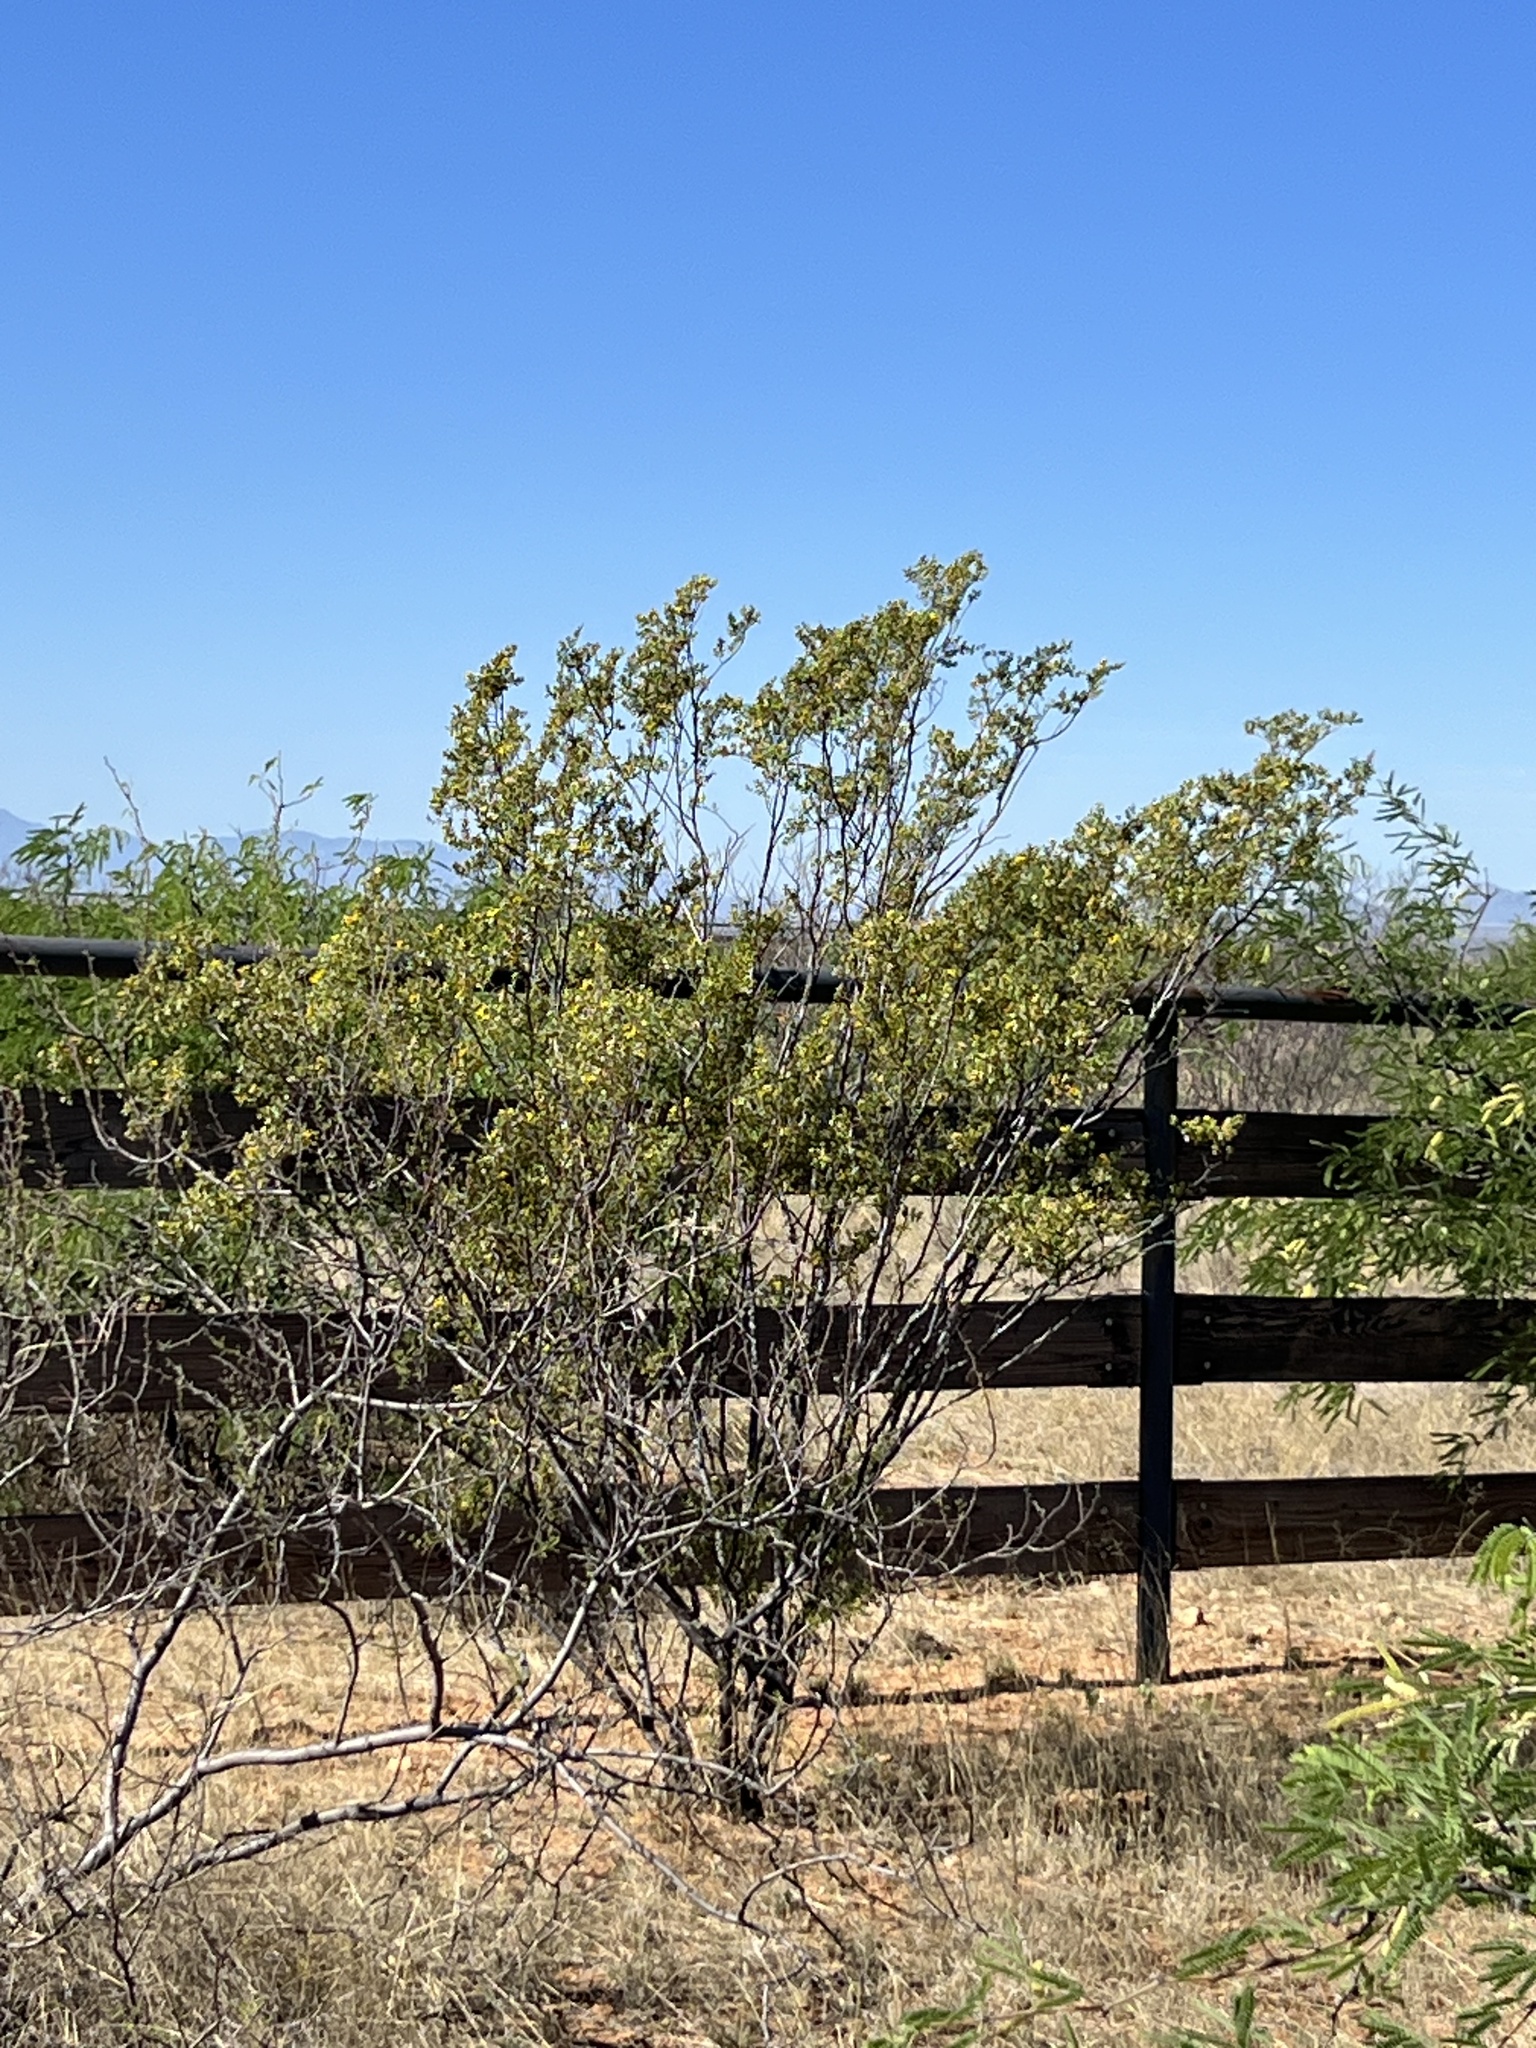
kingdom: Plantae
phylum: Tracheophyta
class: Magnoliopsida
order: Zygophyllales
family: Zygophyllaceae
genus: Larrea
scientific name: Larrea tridentata
